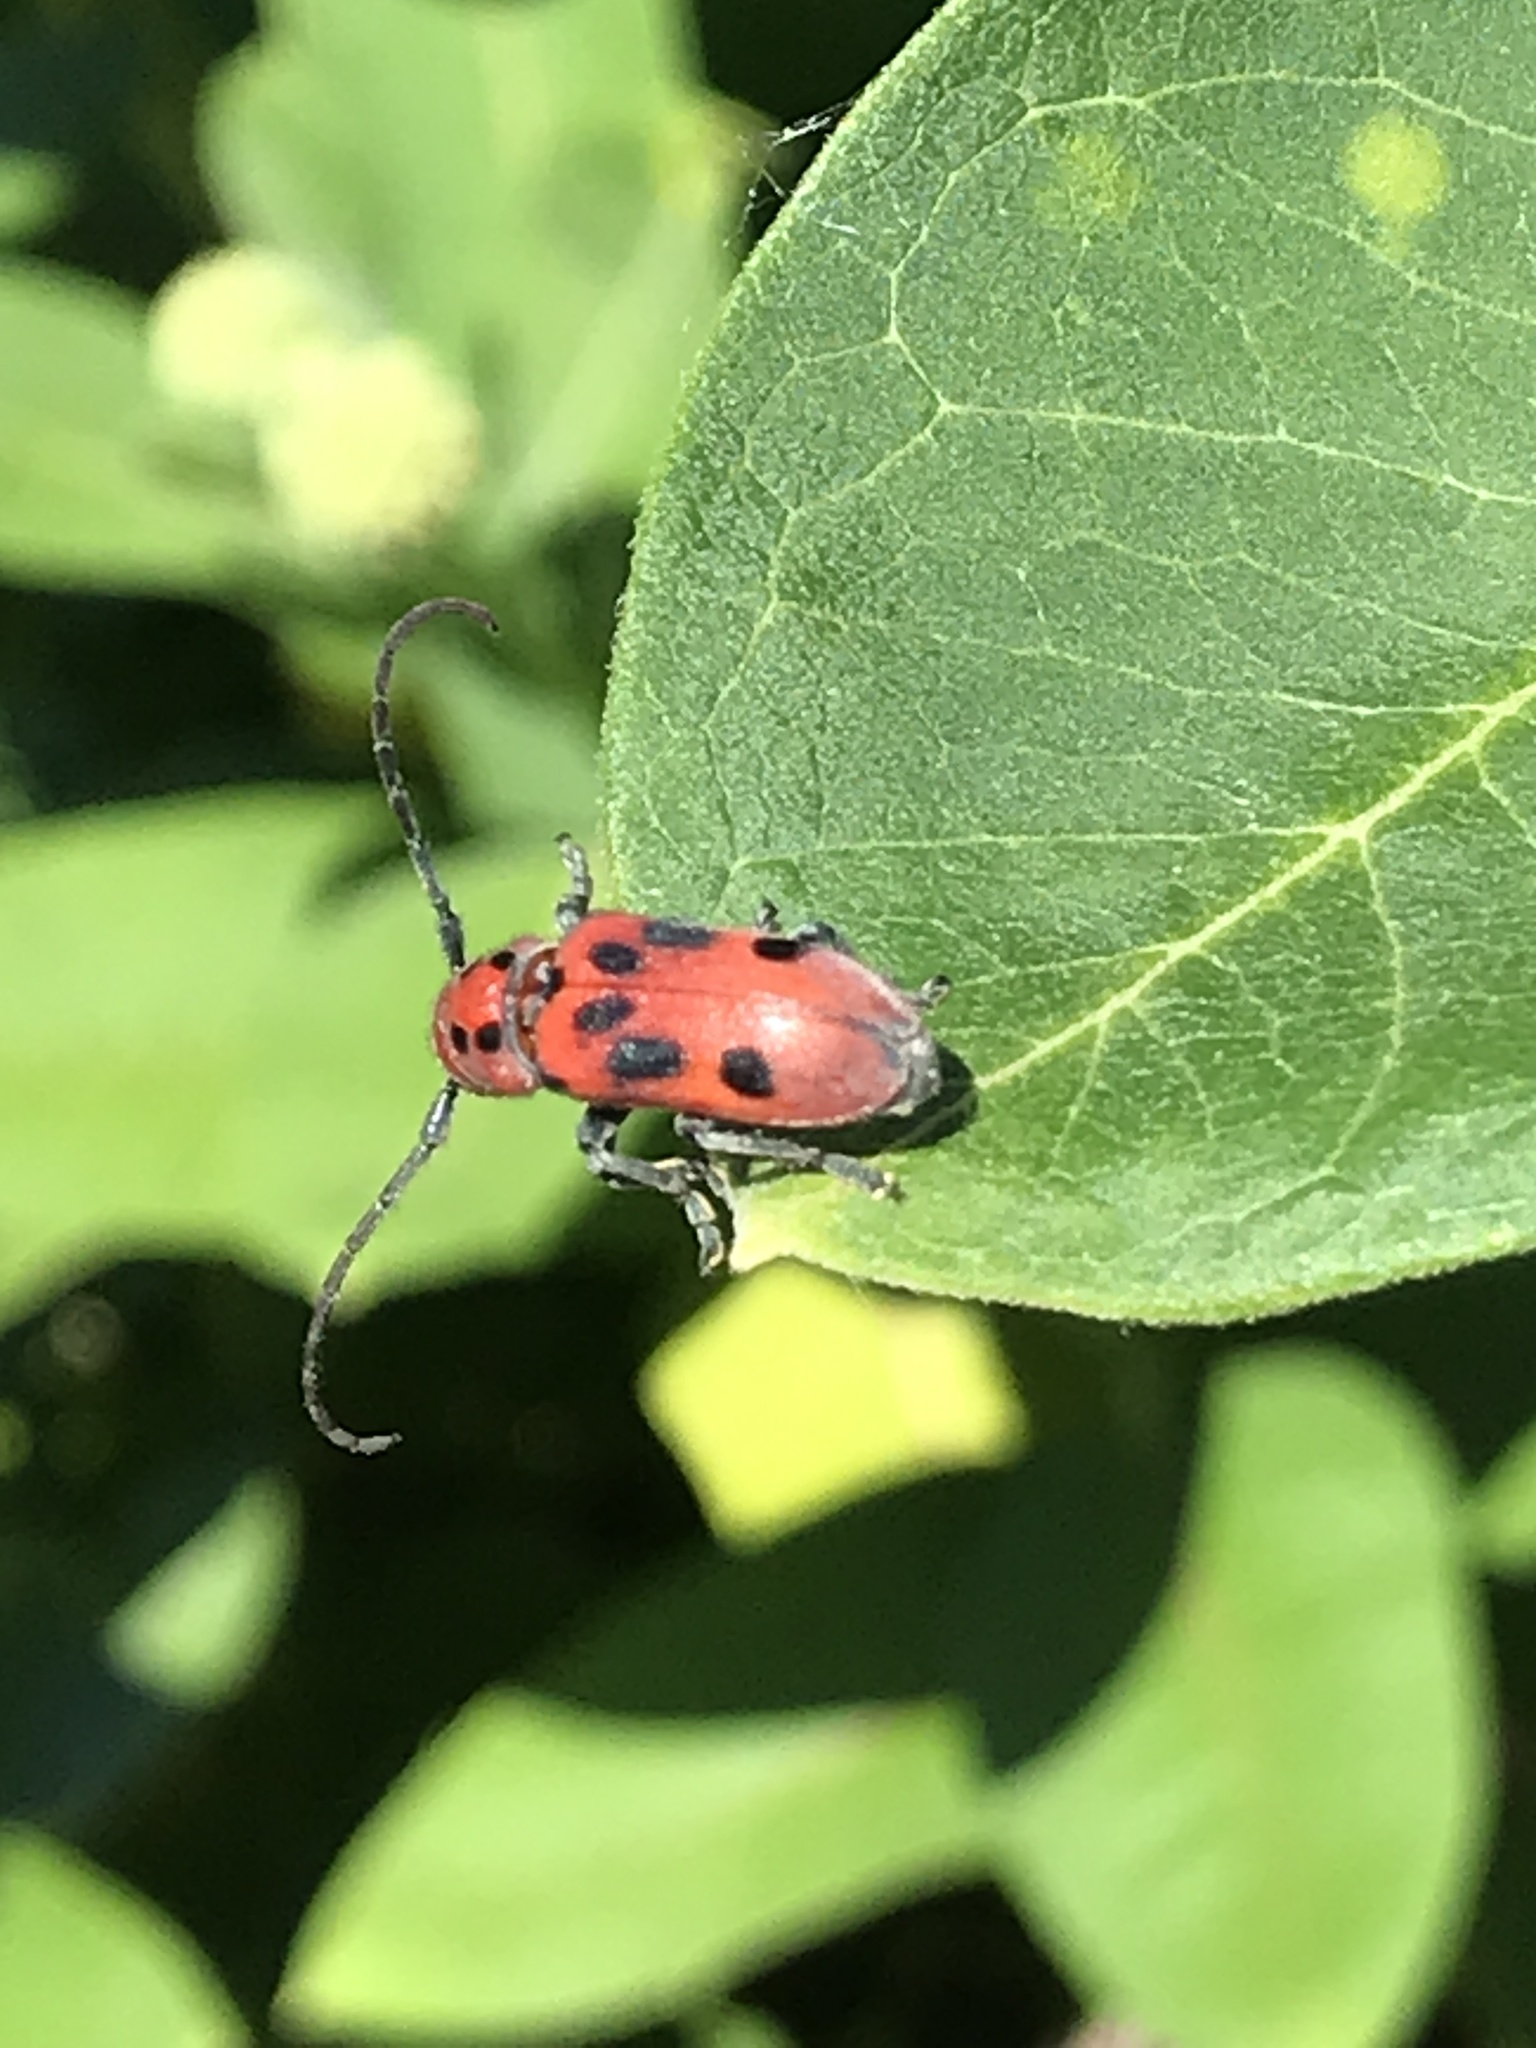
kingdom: Animalia
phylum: Arthropoda
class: Insecta
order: Coleoptera
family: Cerambycidae
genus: Tetraopes
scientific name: Tetraopes tetrophthalmus
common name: Red milkweed beetle
